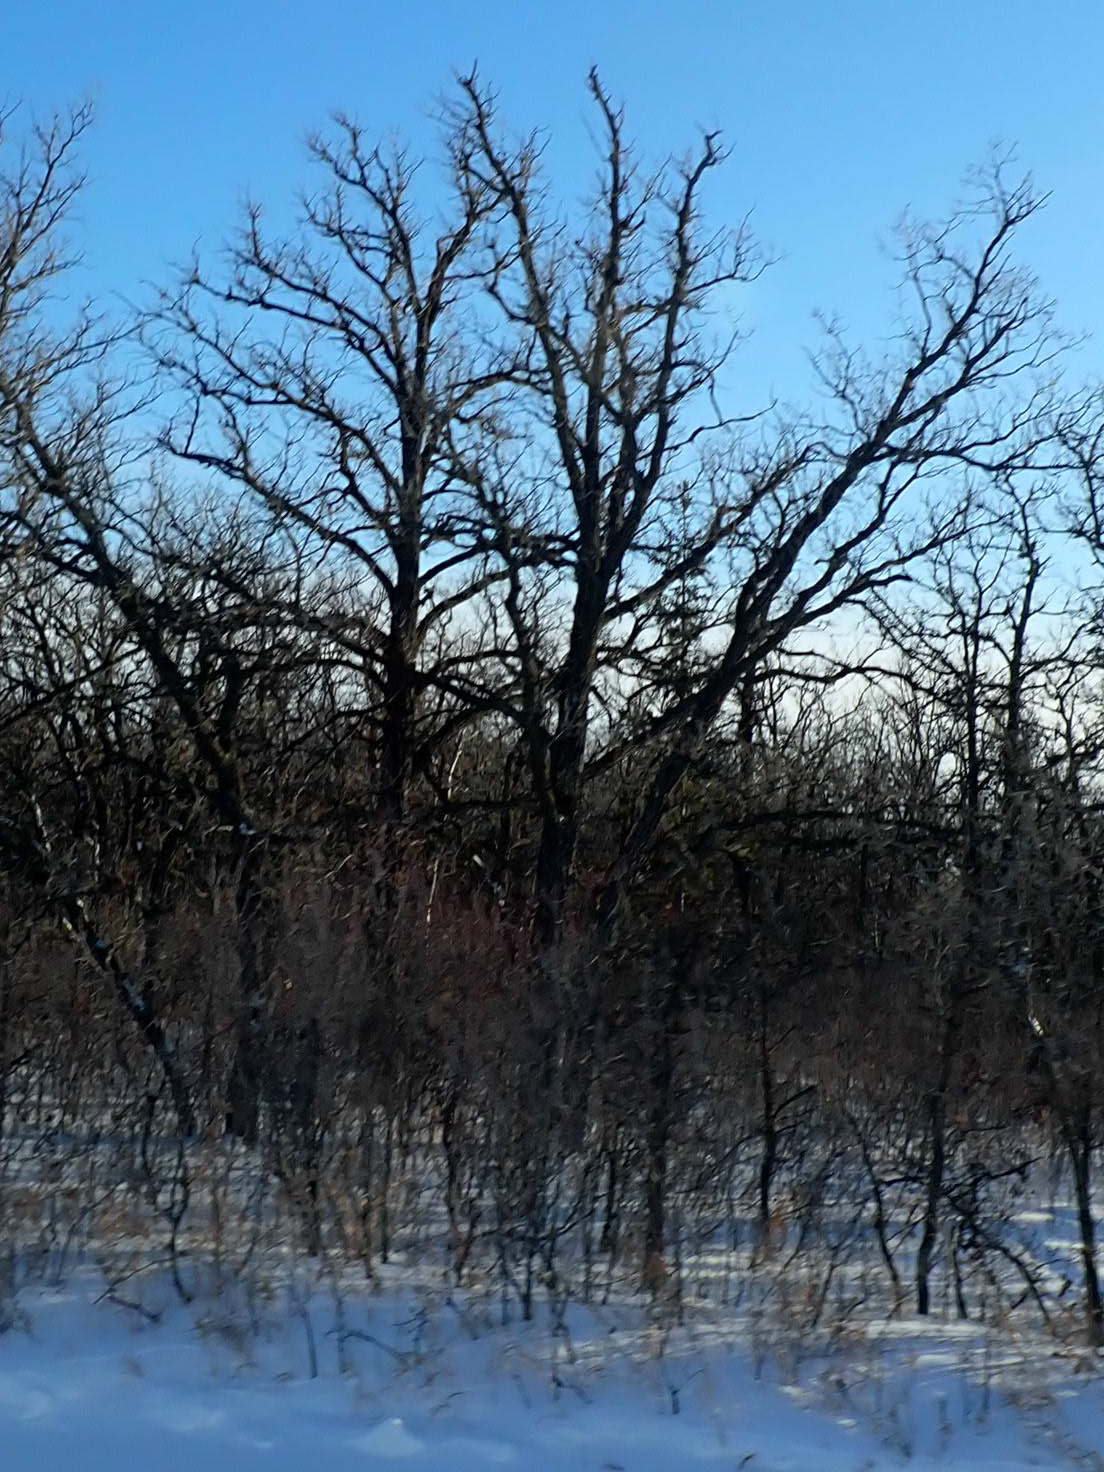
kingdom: Plantae
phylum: Tracheophyta
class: Magnoliopsida
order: Fagales
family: Fagaceae
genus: Quercus
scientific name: Quercus macrocarpa
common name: Bur oak
